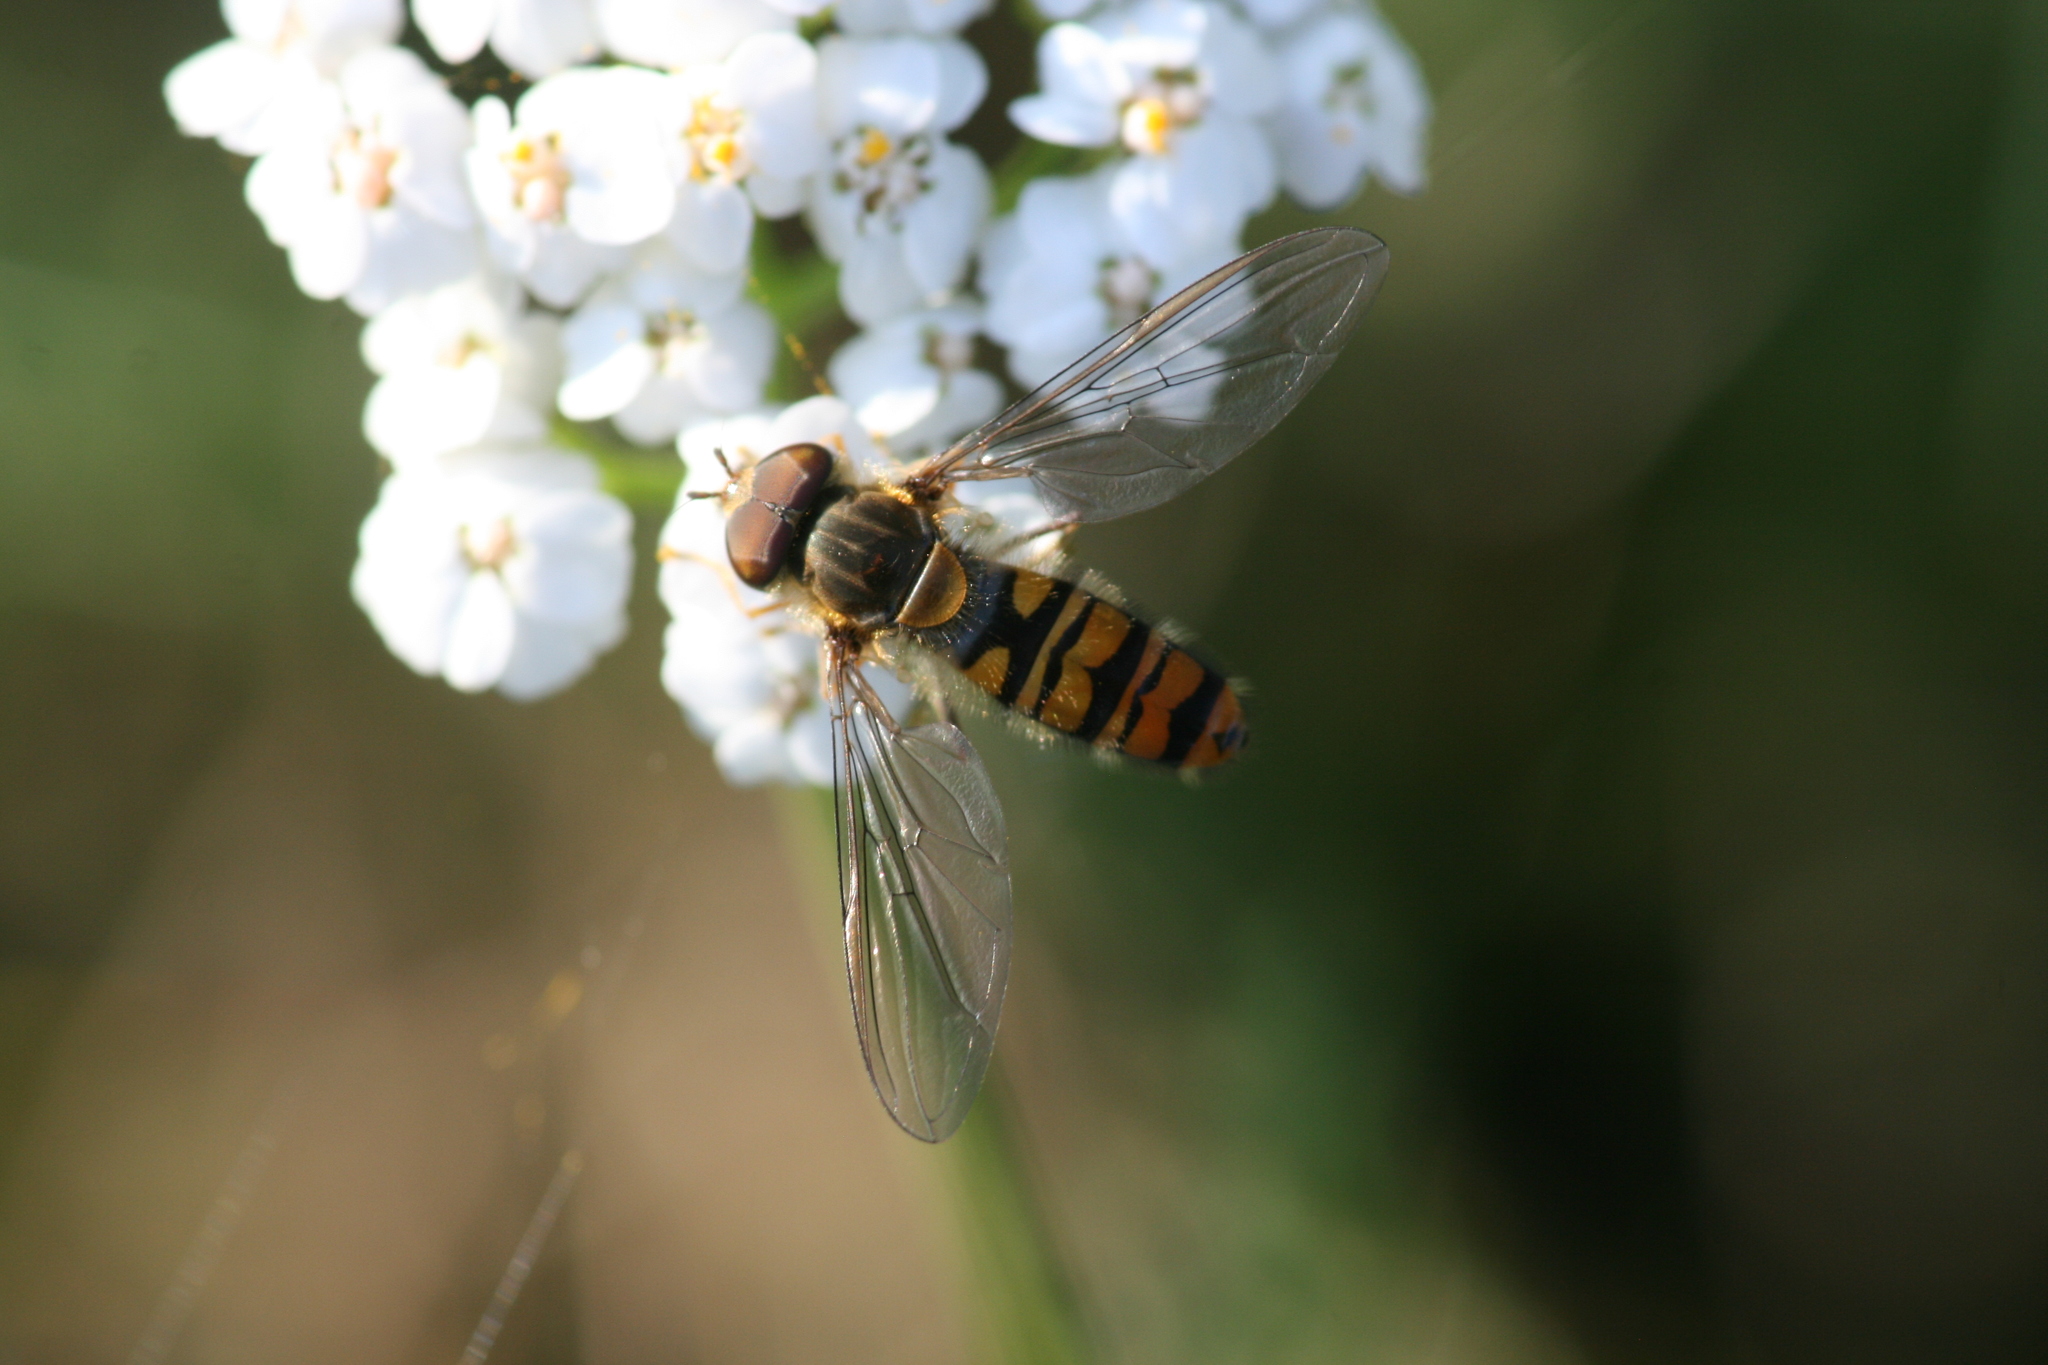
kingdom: Animalia
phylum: Arthropoda
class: Insecta
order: Diptera
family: Syrphidae
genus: Episyrphus
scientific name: Episyrphus balteatus
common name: Marmalade hoverfly
